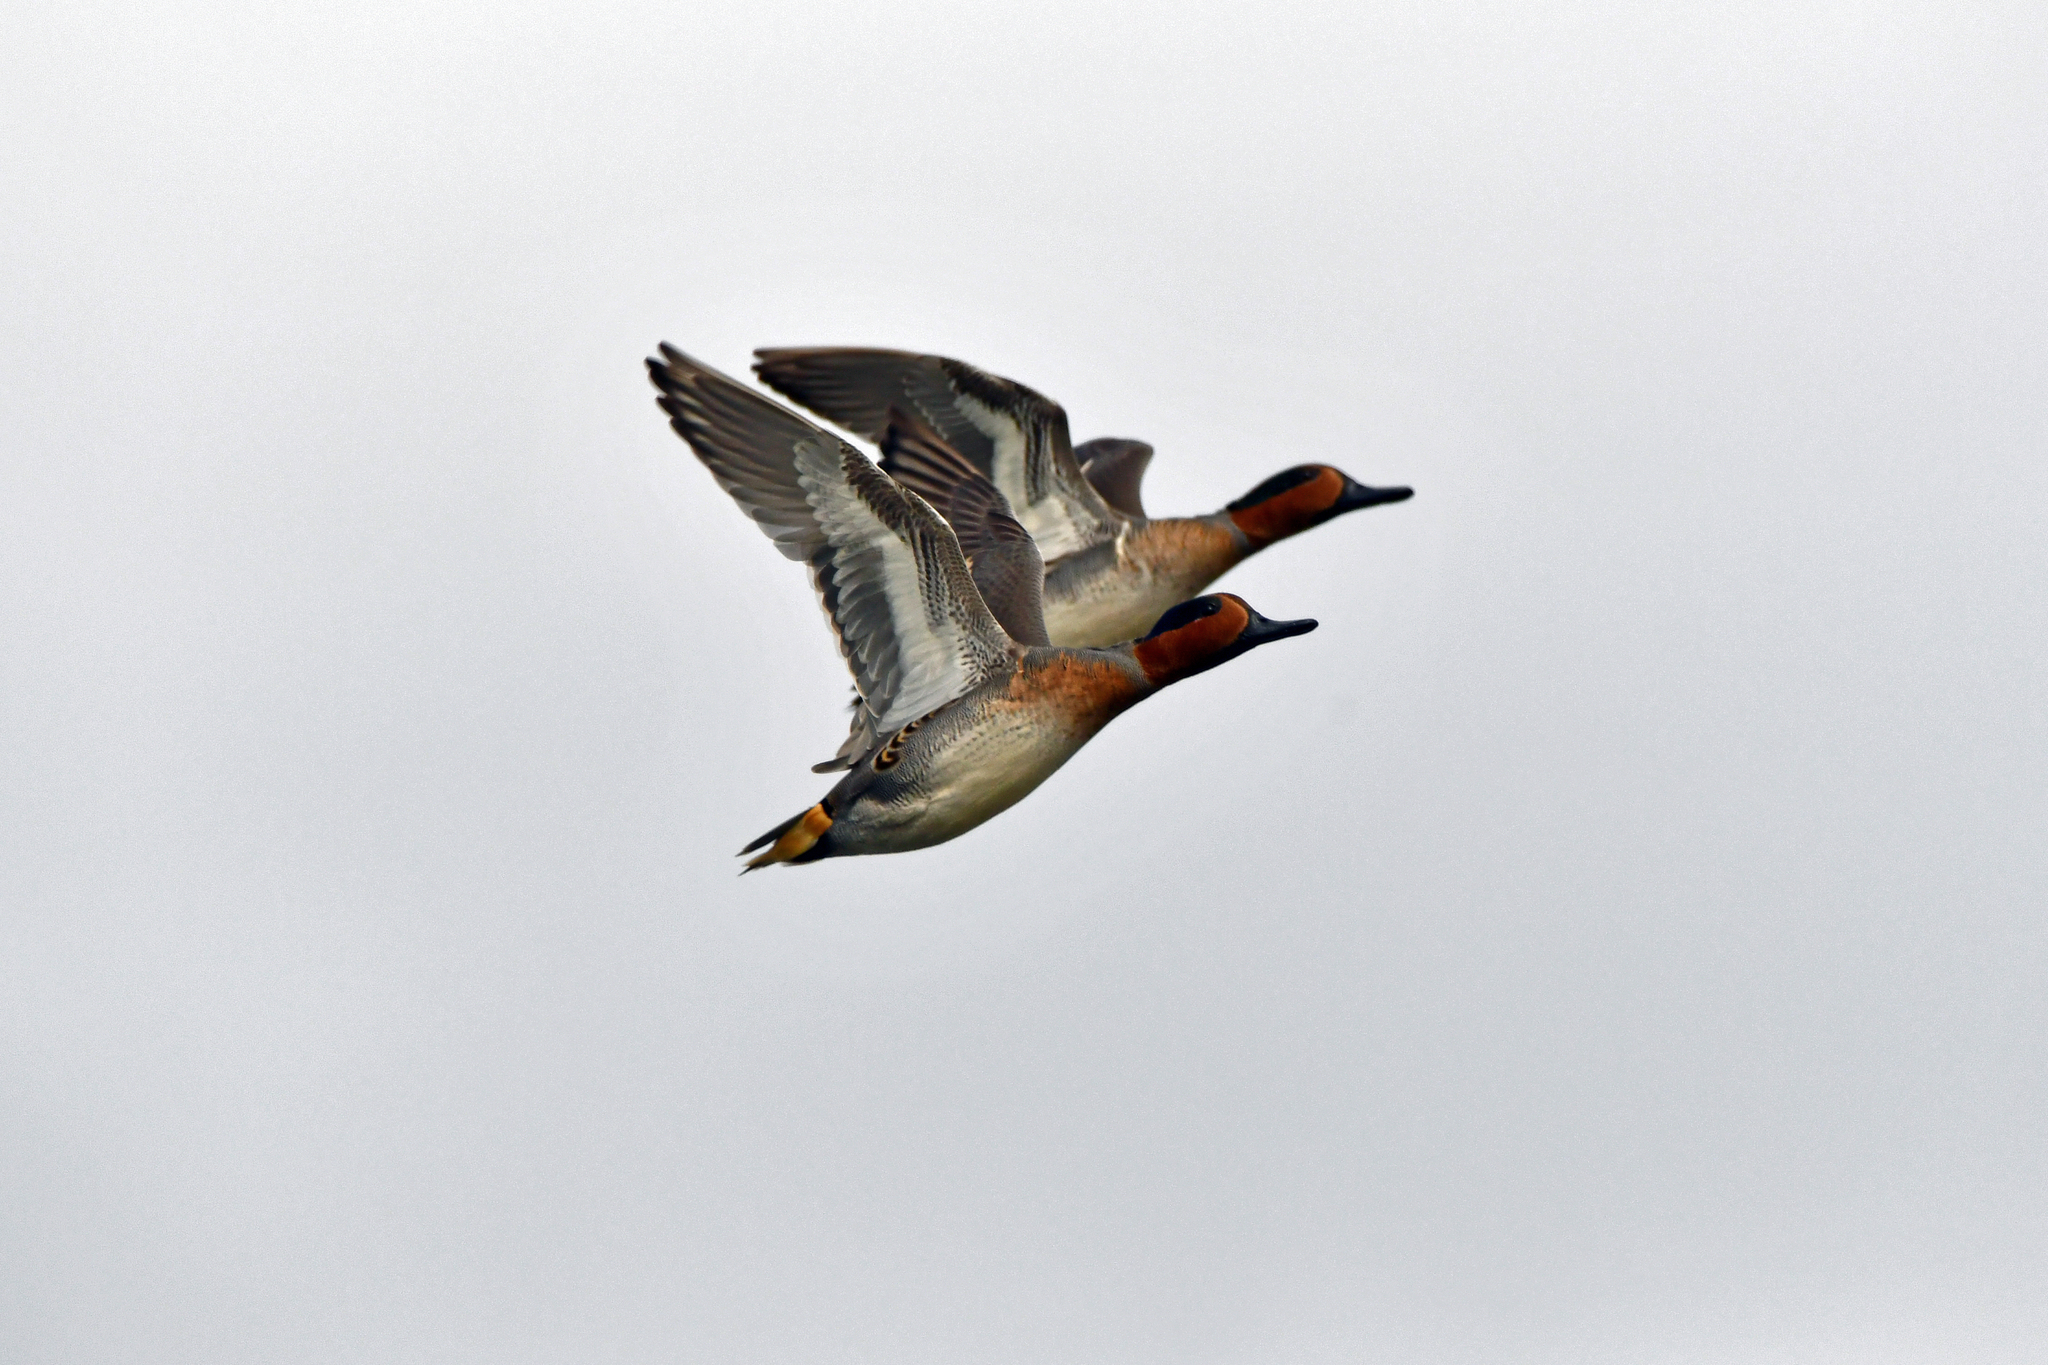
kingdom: Animalia
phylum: Chordata
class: Aves
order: Anseriformes
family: Anatidae
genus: Anas
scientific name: Anas crecca
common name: Eurasian teal
